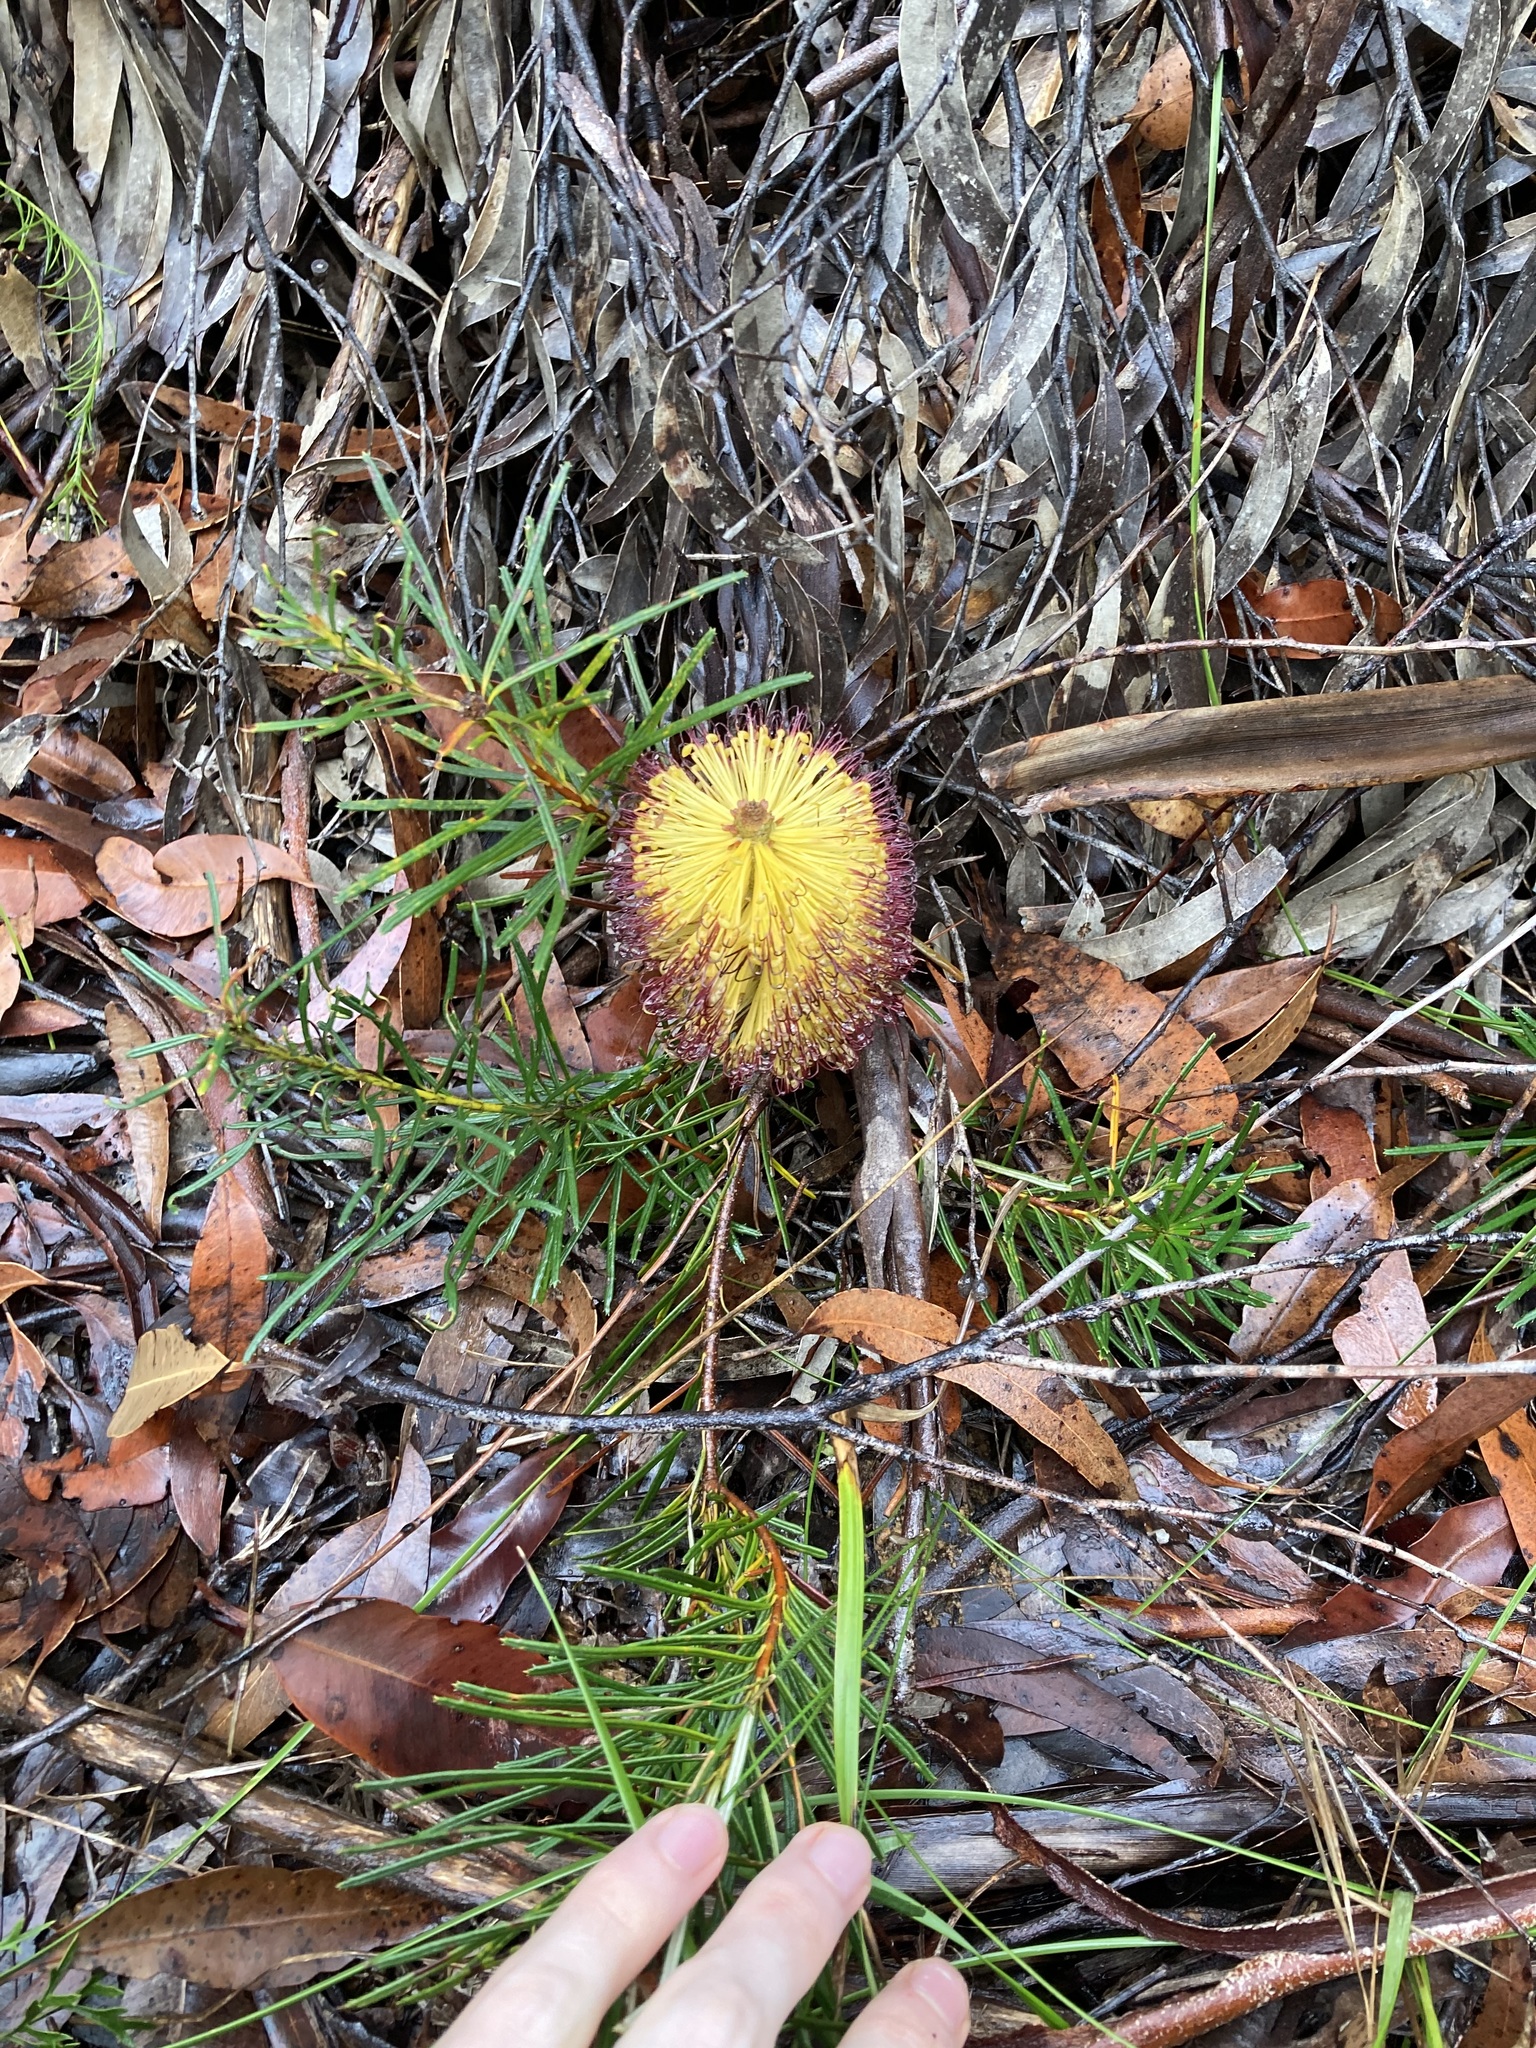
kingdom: Plantae
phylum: Tracheophyta
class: Magnoliopsida
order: Proteales
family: Proteaceae
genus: Banksia
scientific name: Banksia spinulosa
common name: Hairpin banksia
